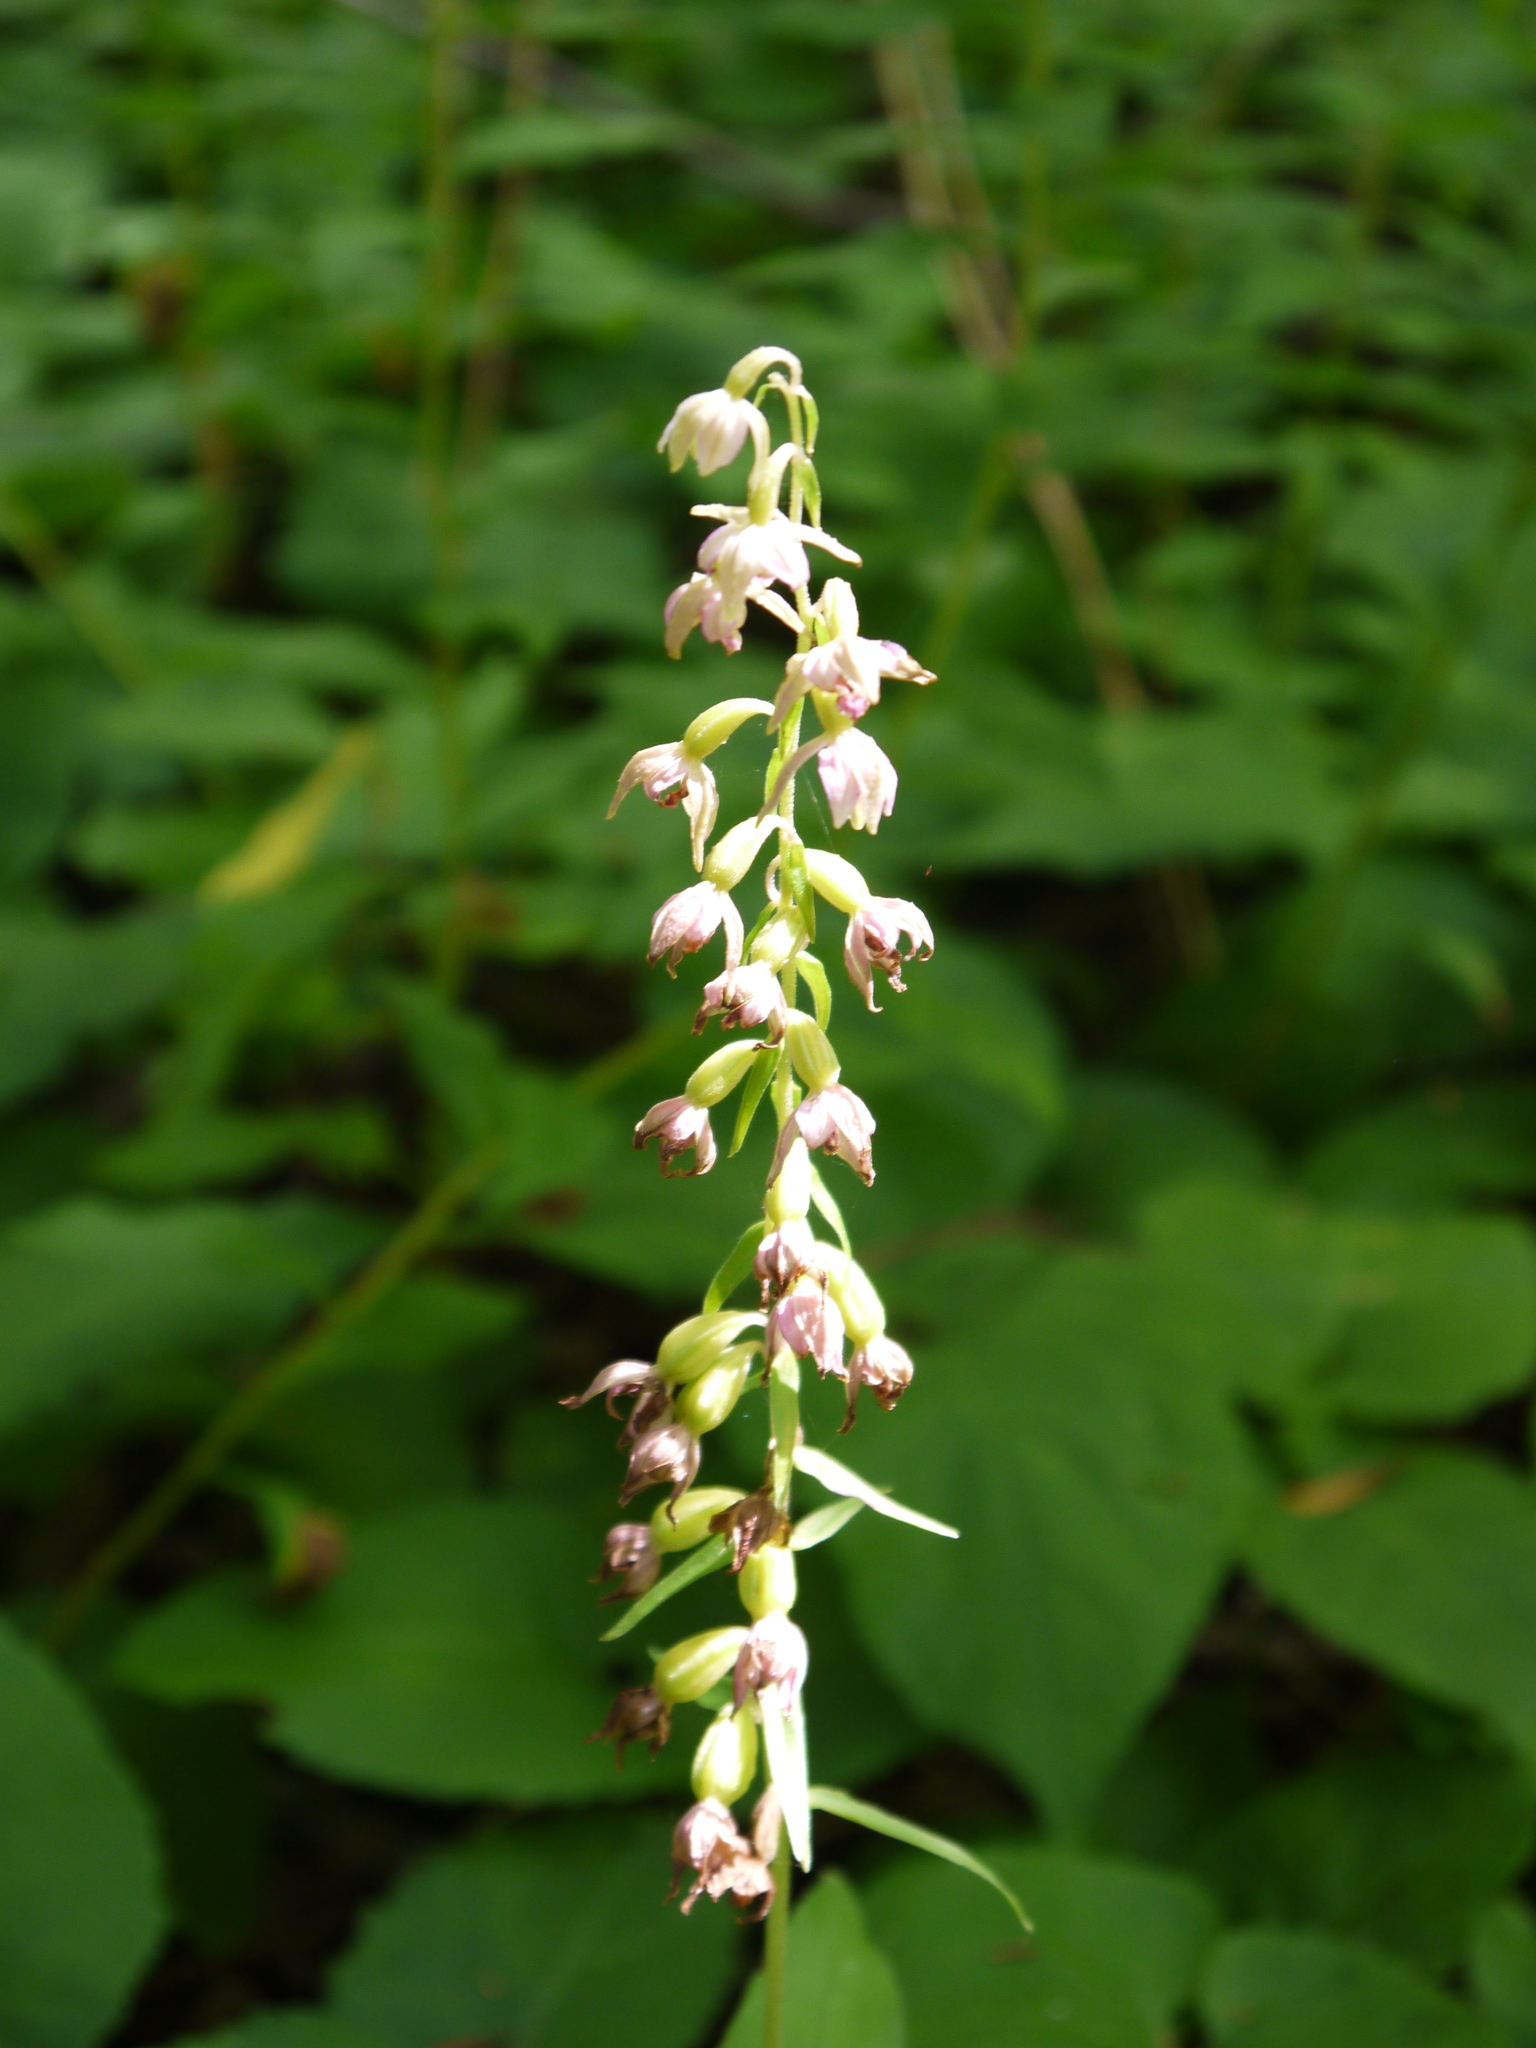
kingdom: Plantae
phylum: Tracheophyta
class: Liliopsida
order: Asparagales
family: Orchidaceae
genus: Epipactis
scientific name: Epipactis helleborine
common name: Broad-leaved helleborine
